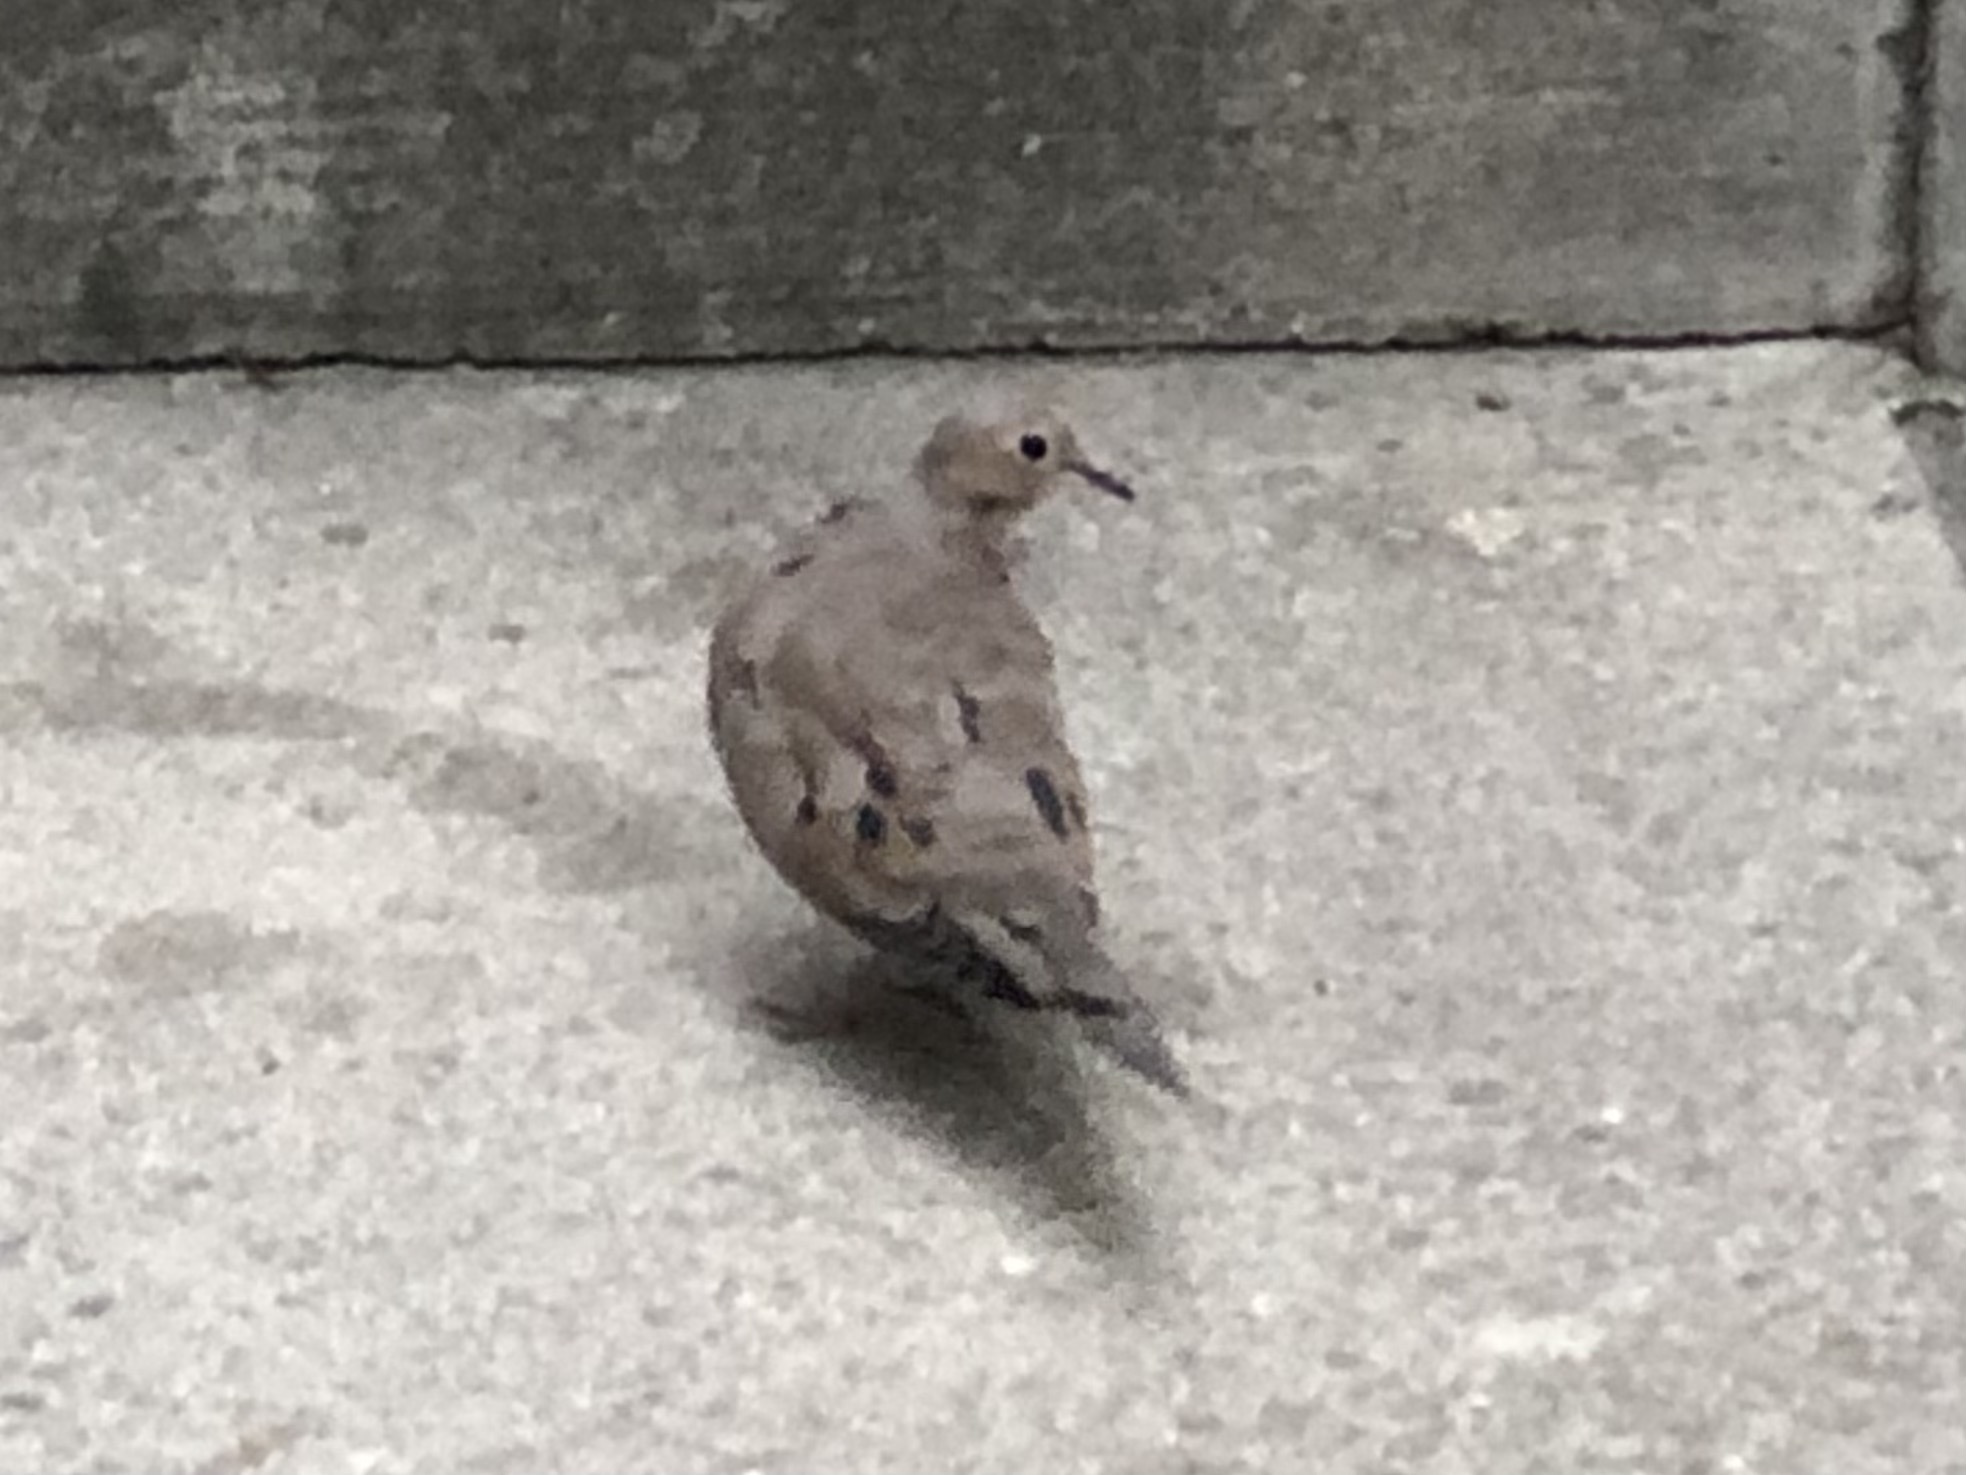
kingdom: Animalia
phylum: Chordata
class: Aves
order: Columbiformes
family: Columbidae
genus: Zenaida
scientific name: Zenaida macroura
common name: Mourning dove
